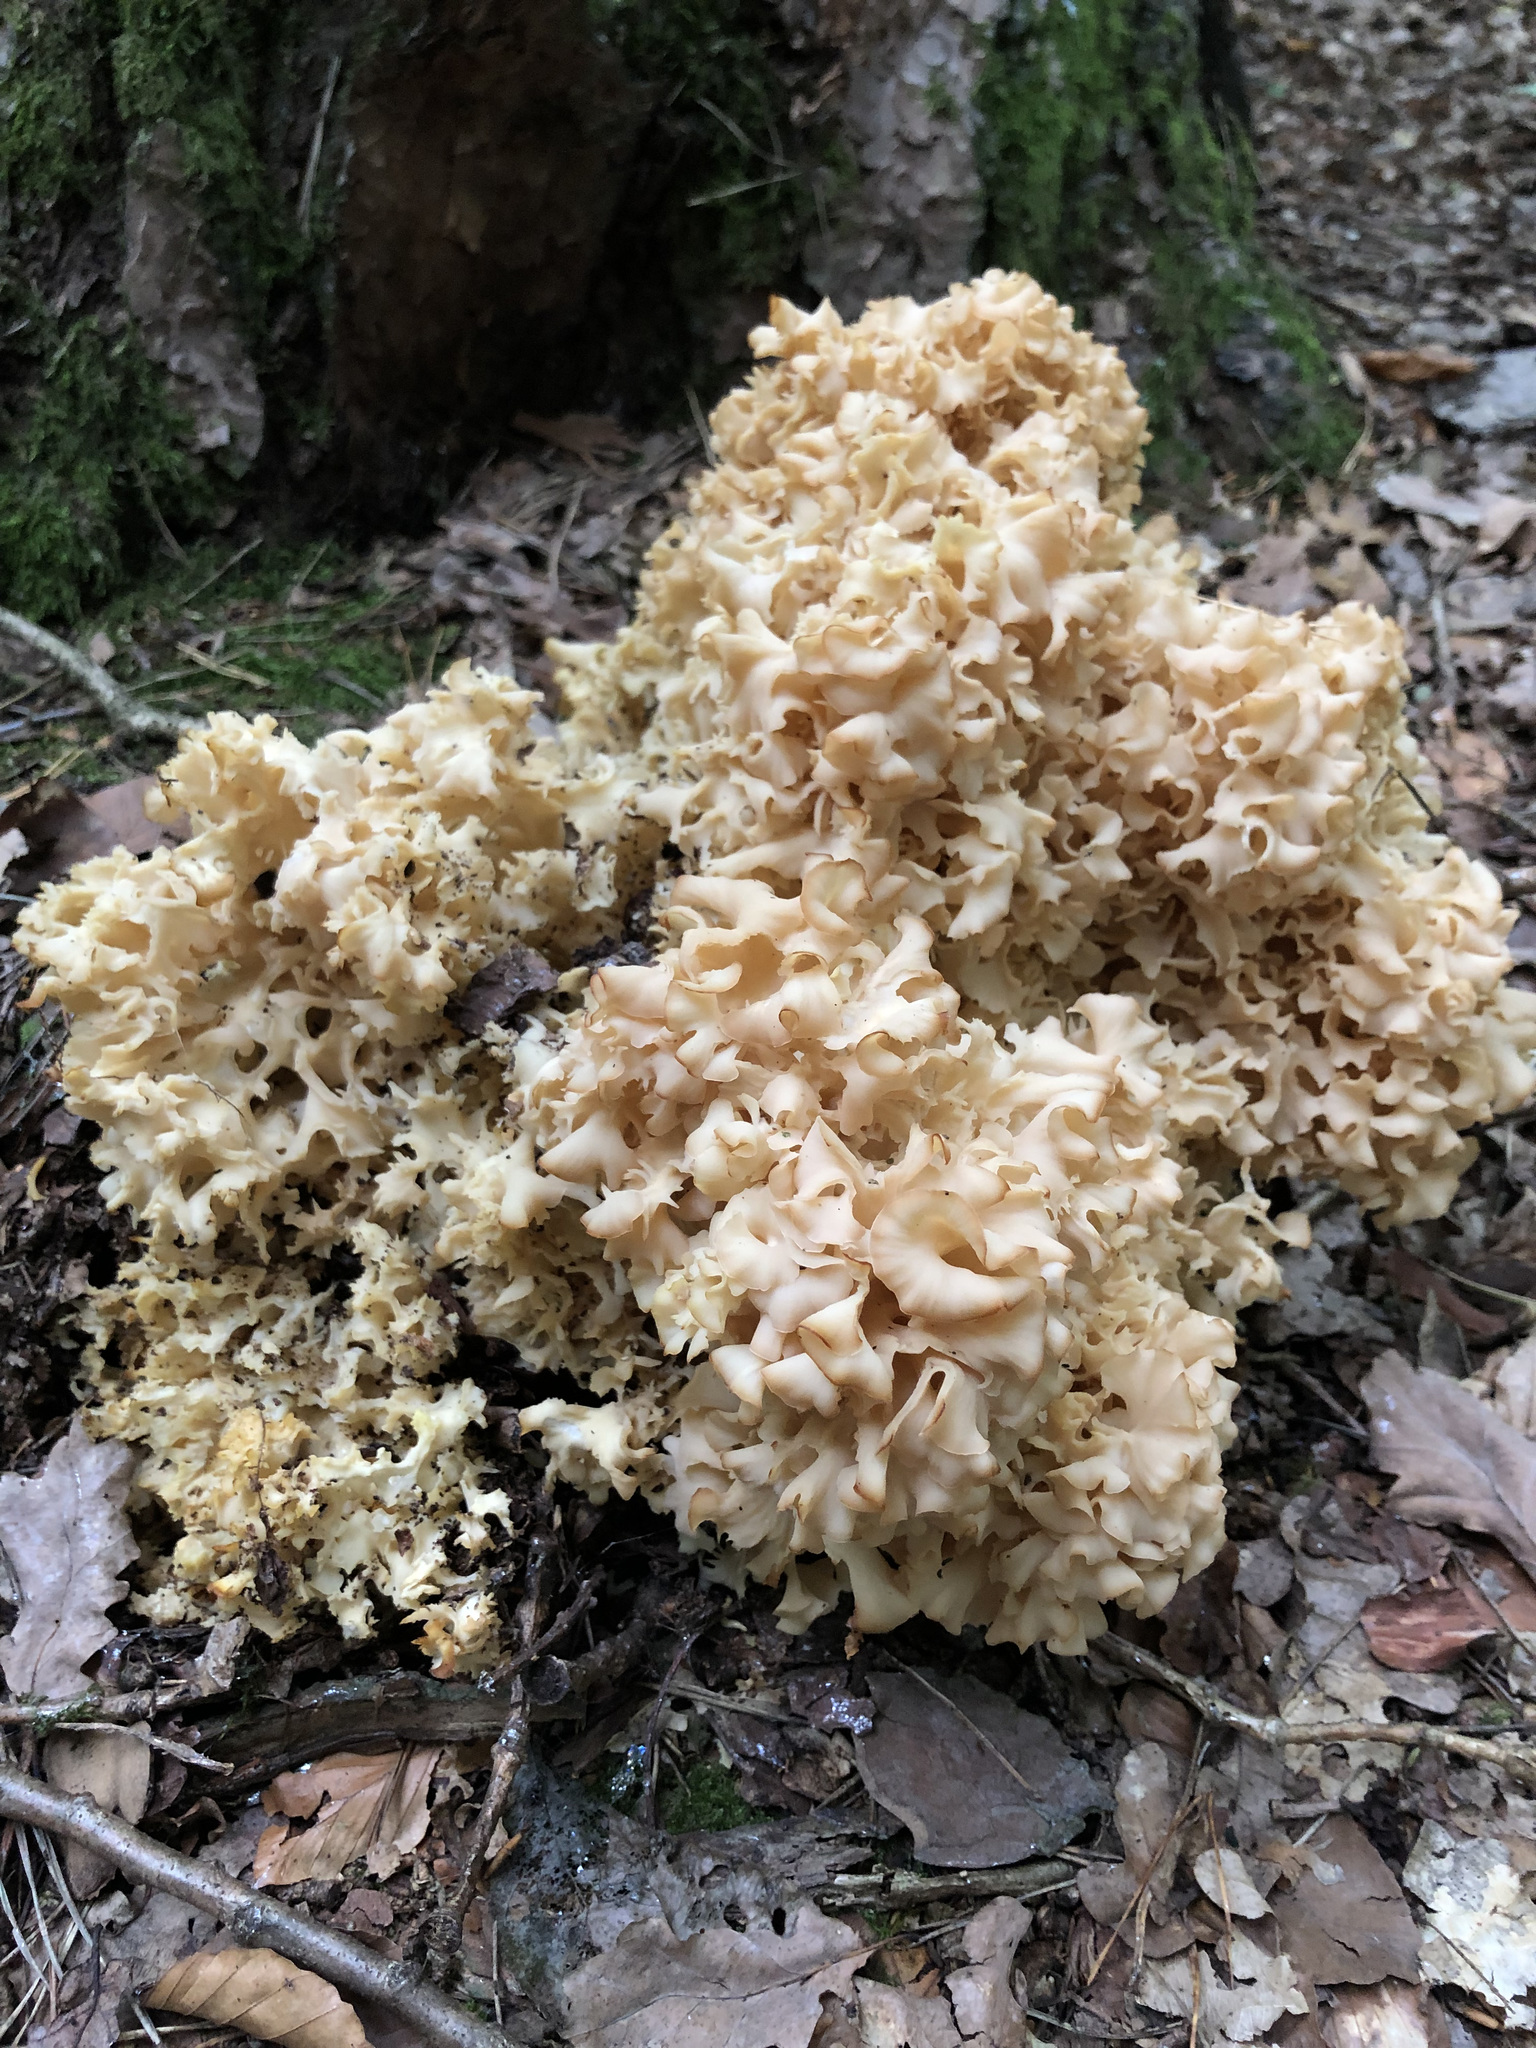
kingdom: Fungi
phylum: Basidiomycota
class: Agaricomycetes
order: Polyporales
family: Sparassidaceae
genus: Sparassis
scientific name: Sparassis crispa
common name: Brain fungus
